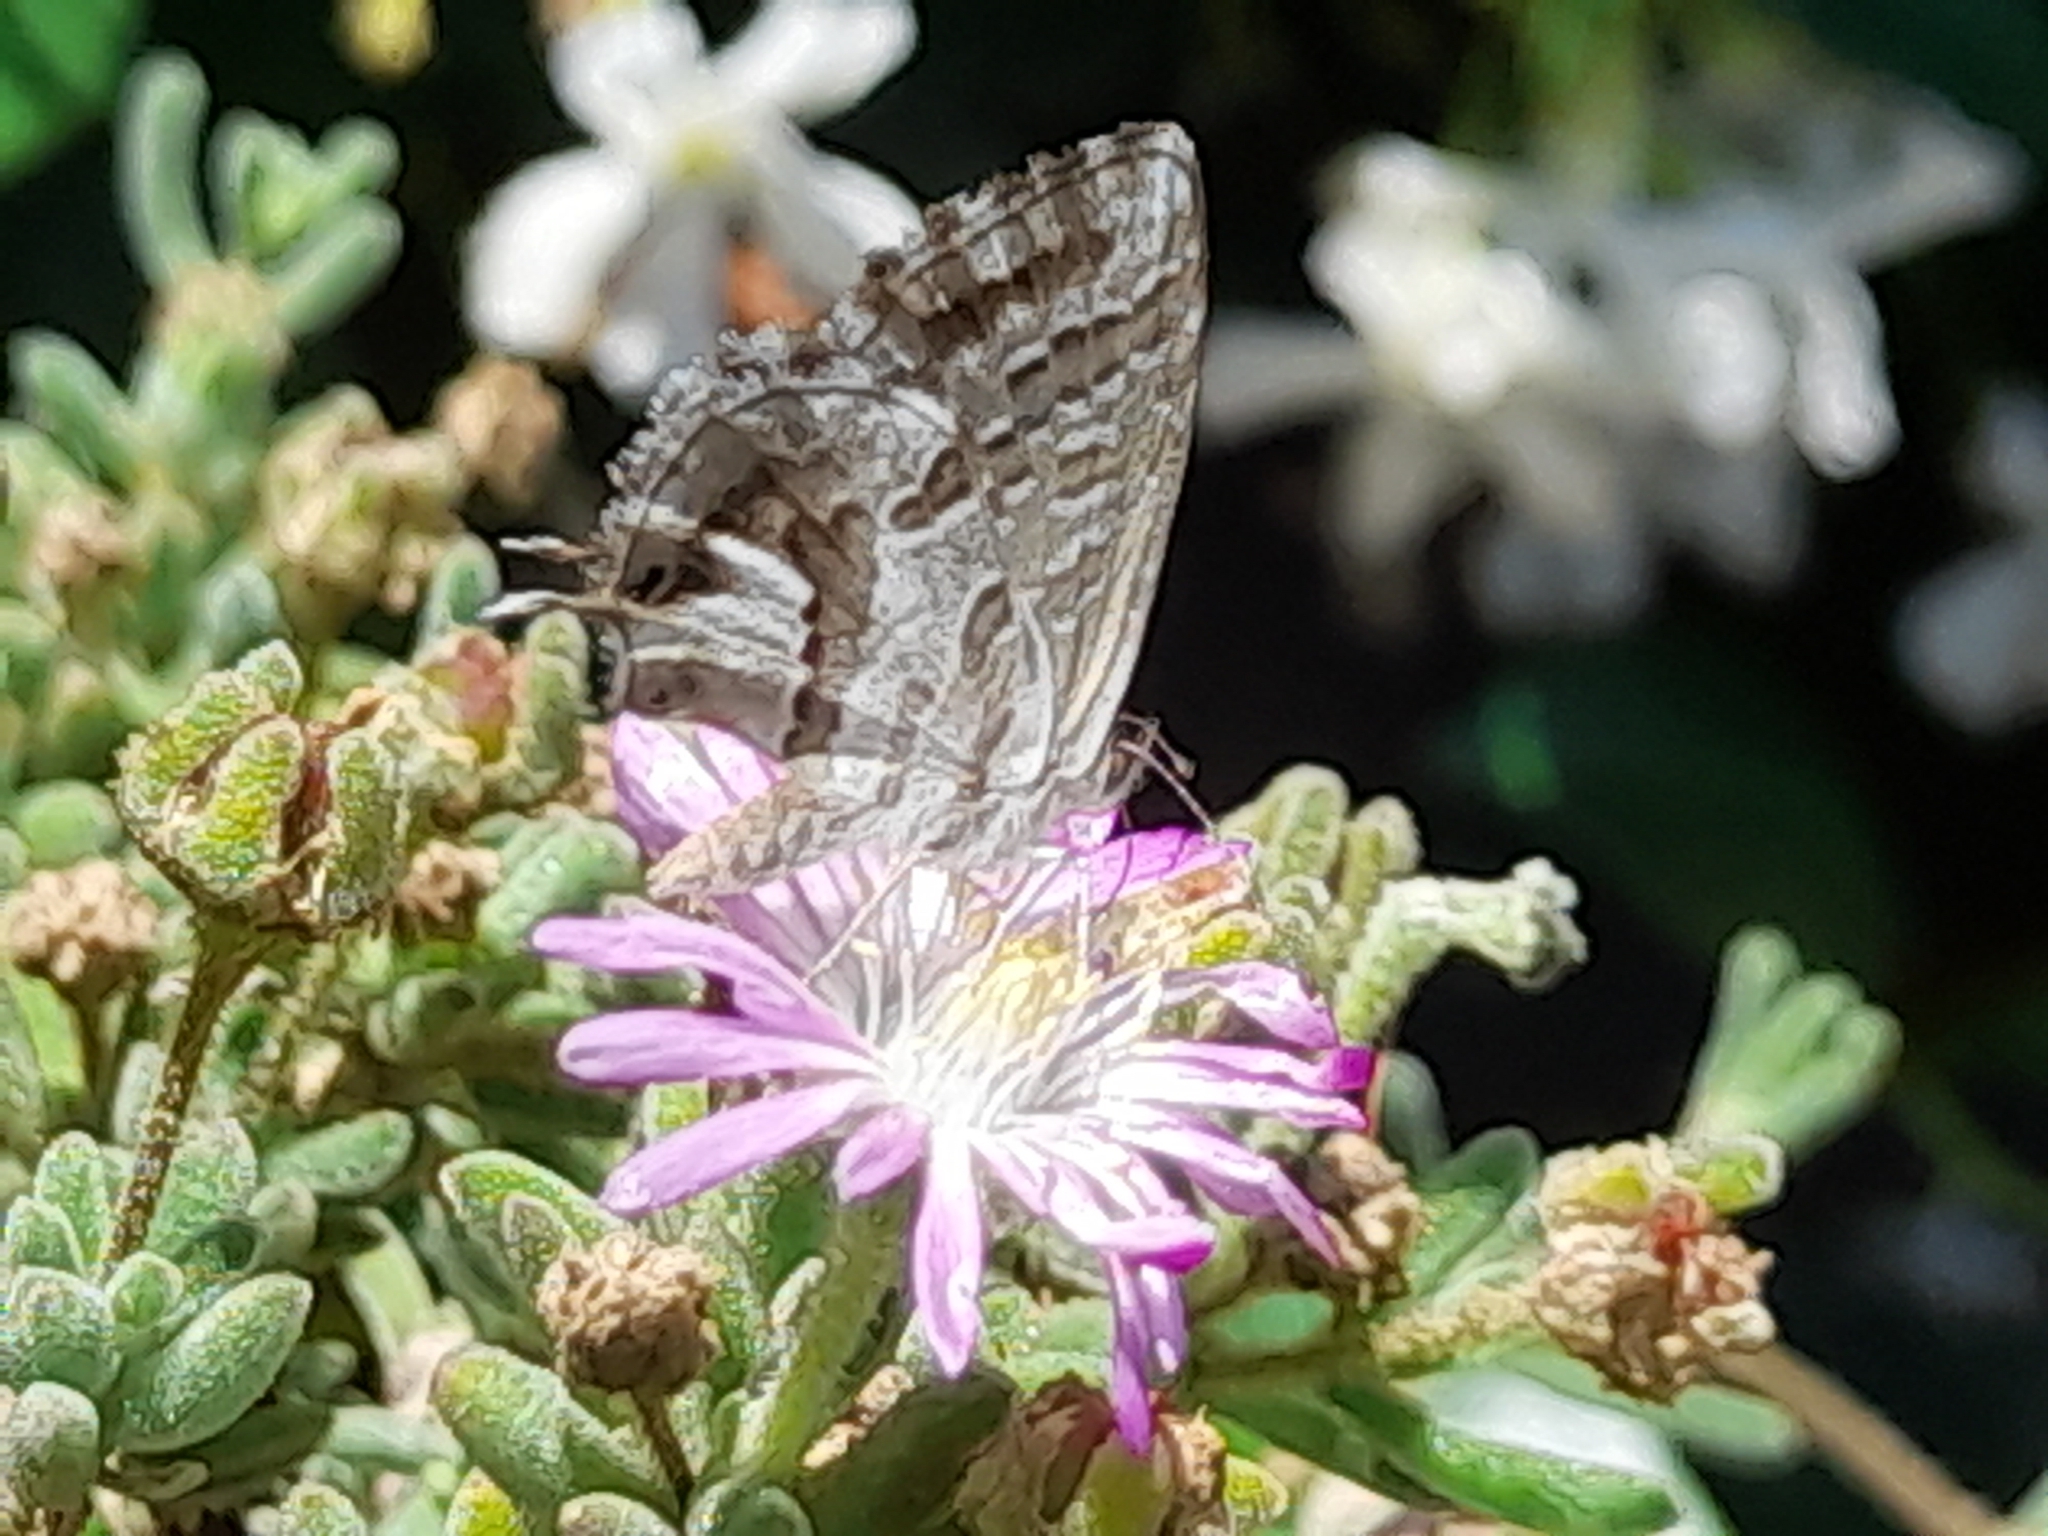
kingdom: Animalia
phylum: Arthropoda
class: Insecta
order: Lepidoptera
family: Lycaenidae
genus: Cacyreus
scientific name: Cacyreus marshalli
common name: Geranium bronze
